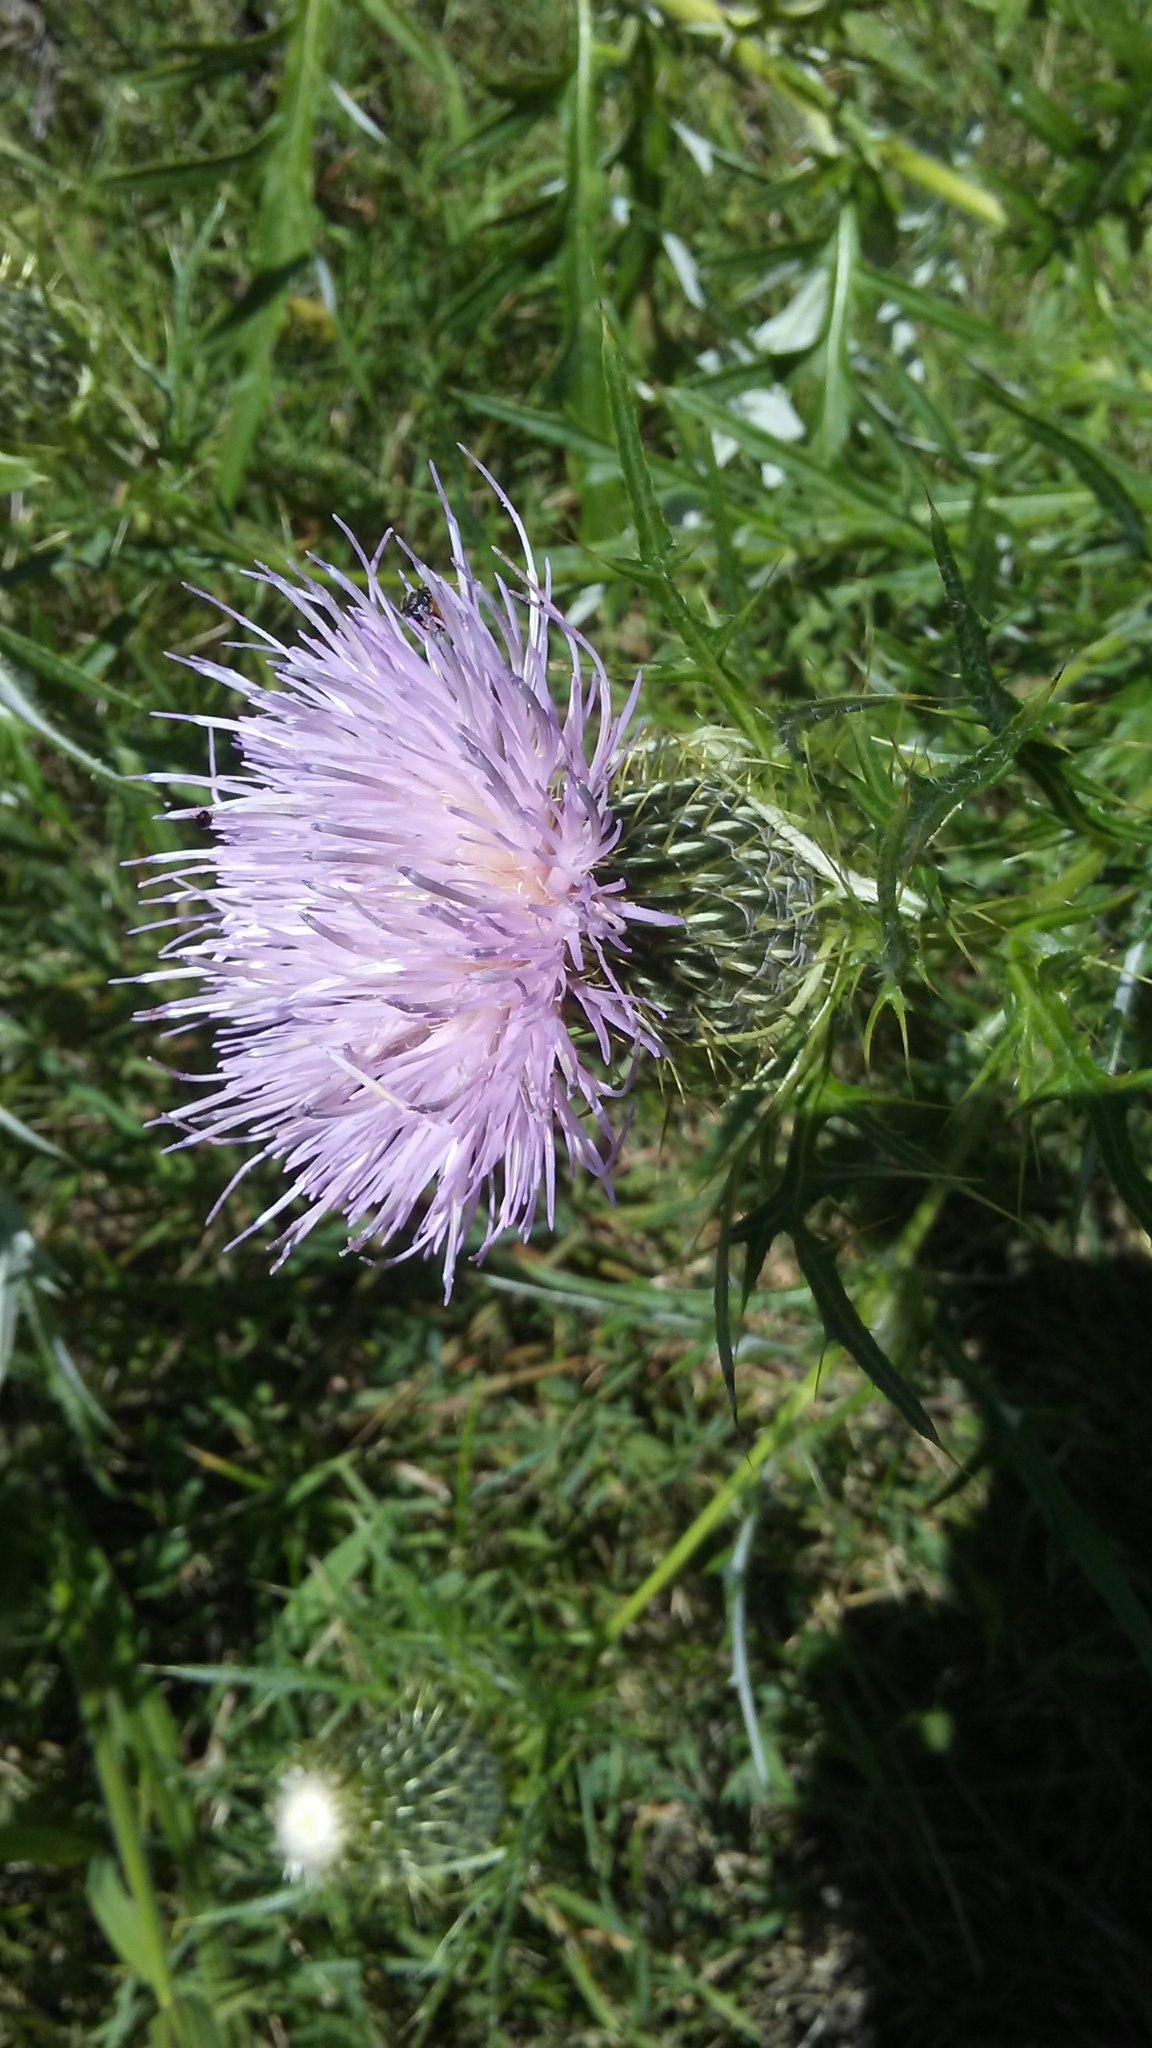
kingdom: Plantae
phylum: Tracheophyta
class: Magnoliopsida
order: Asterales
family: Asteraceae
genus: Cirsium
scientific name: Cirsium discolor
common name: Field thistle
